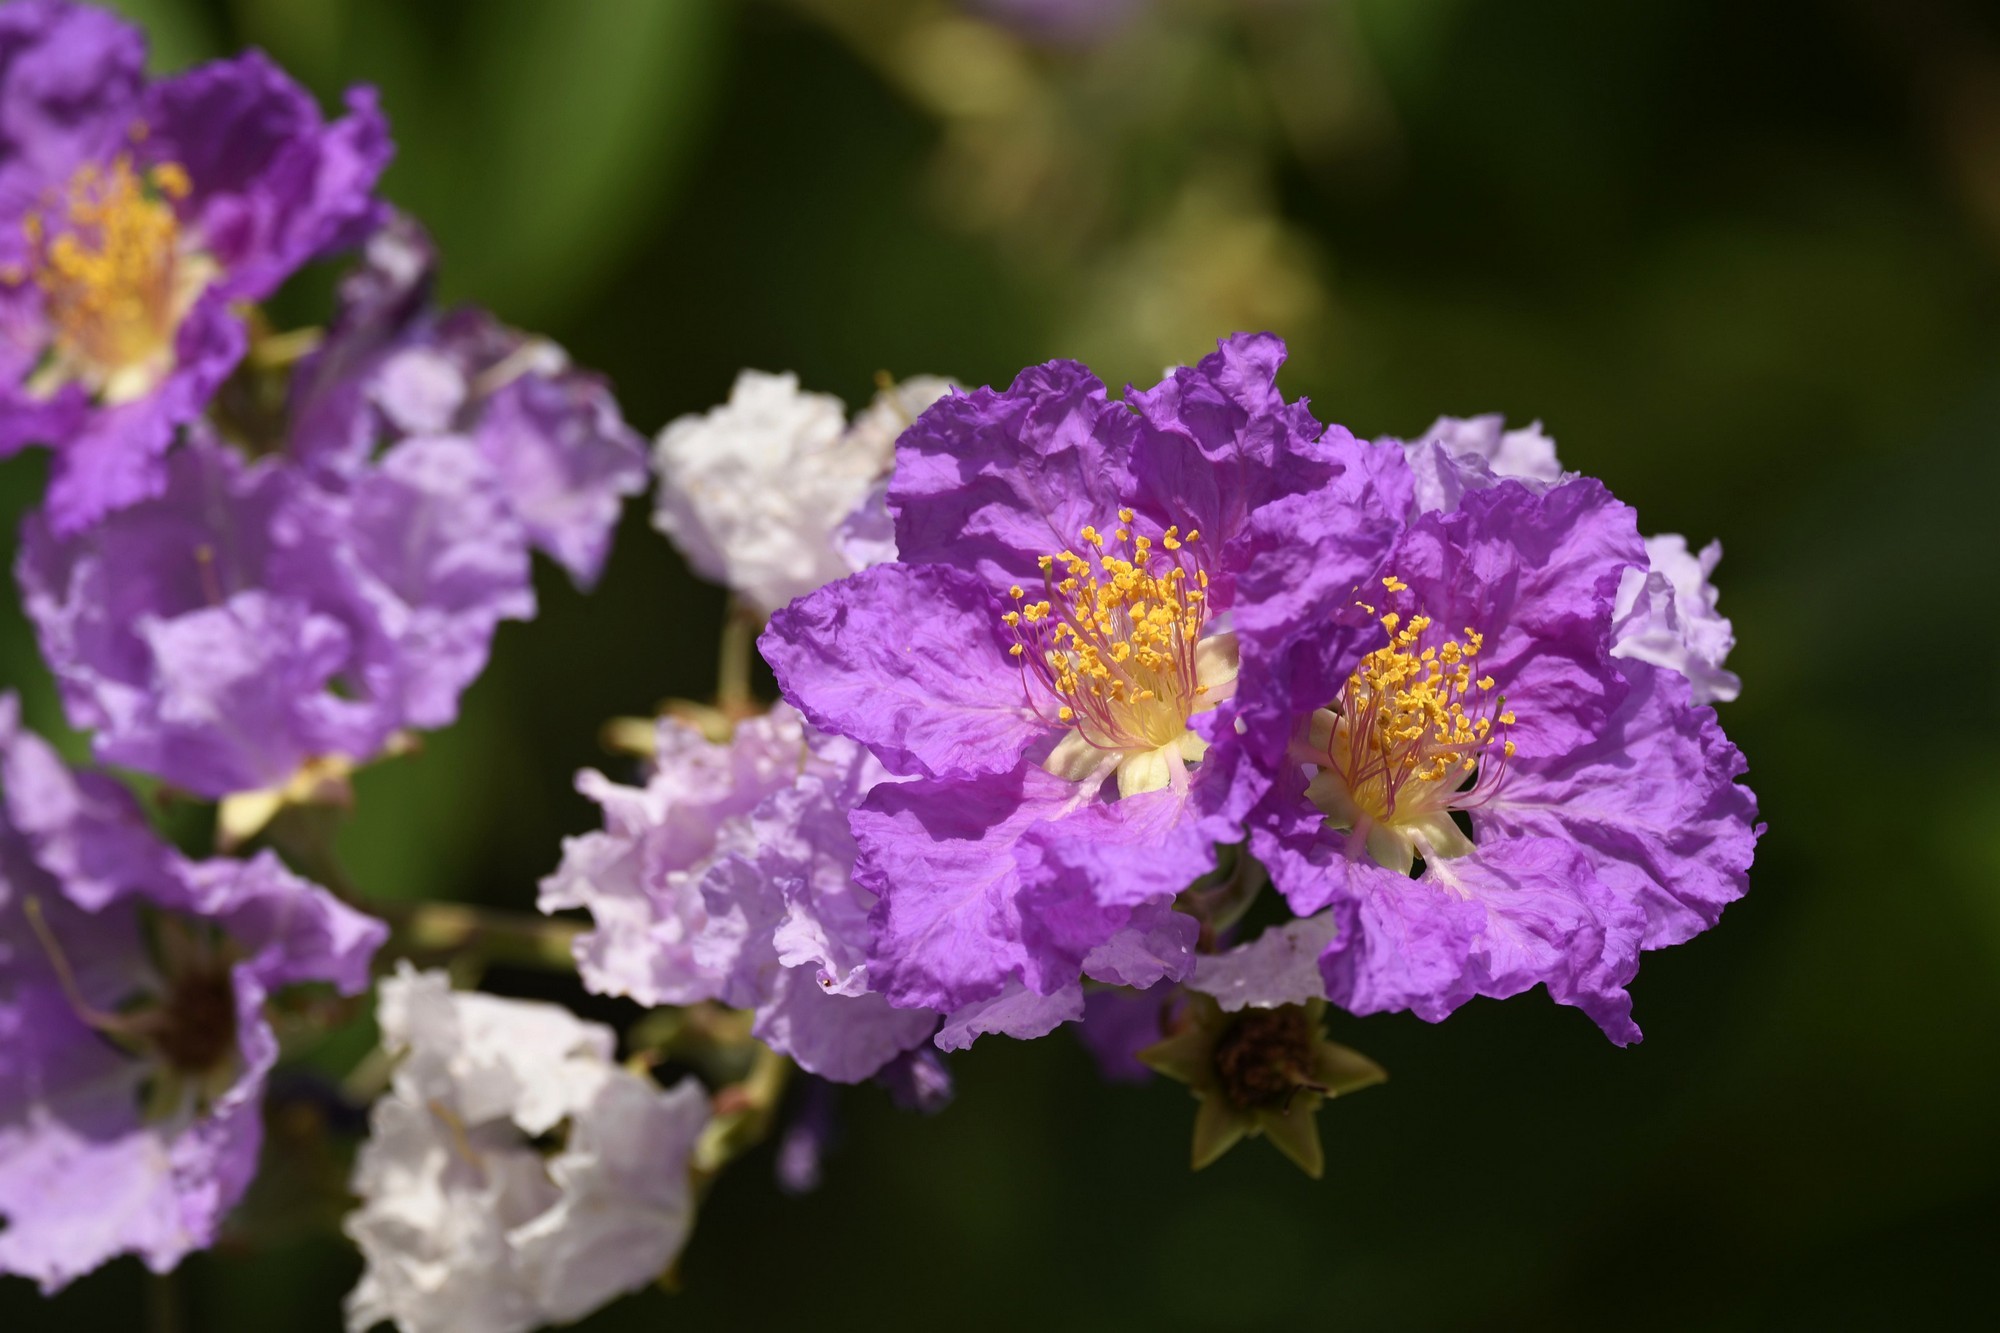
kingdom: Plantae
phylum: Tracheophyta
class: Magnoliopsida
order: Myrtales
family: Lythraceae
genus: Lagerstroemia
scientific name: Lagerstroemia speciosa
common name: Queen's crape-myrtle
